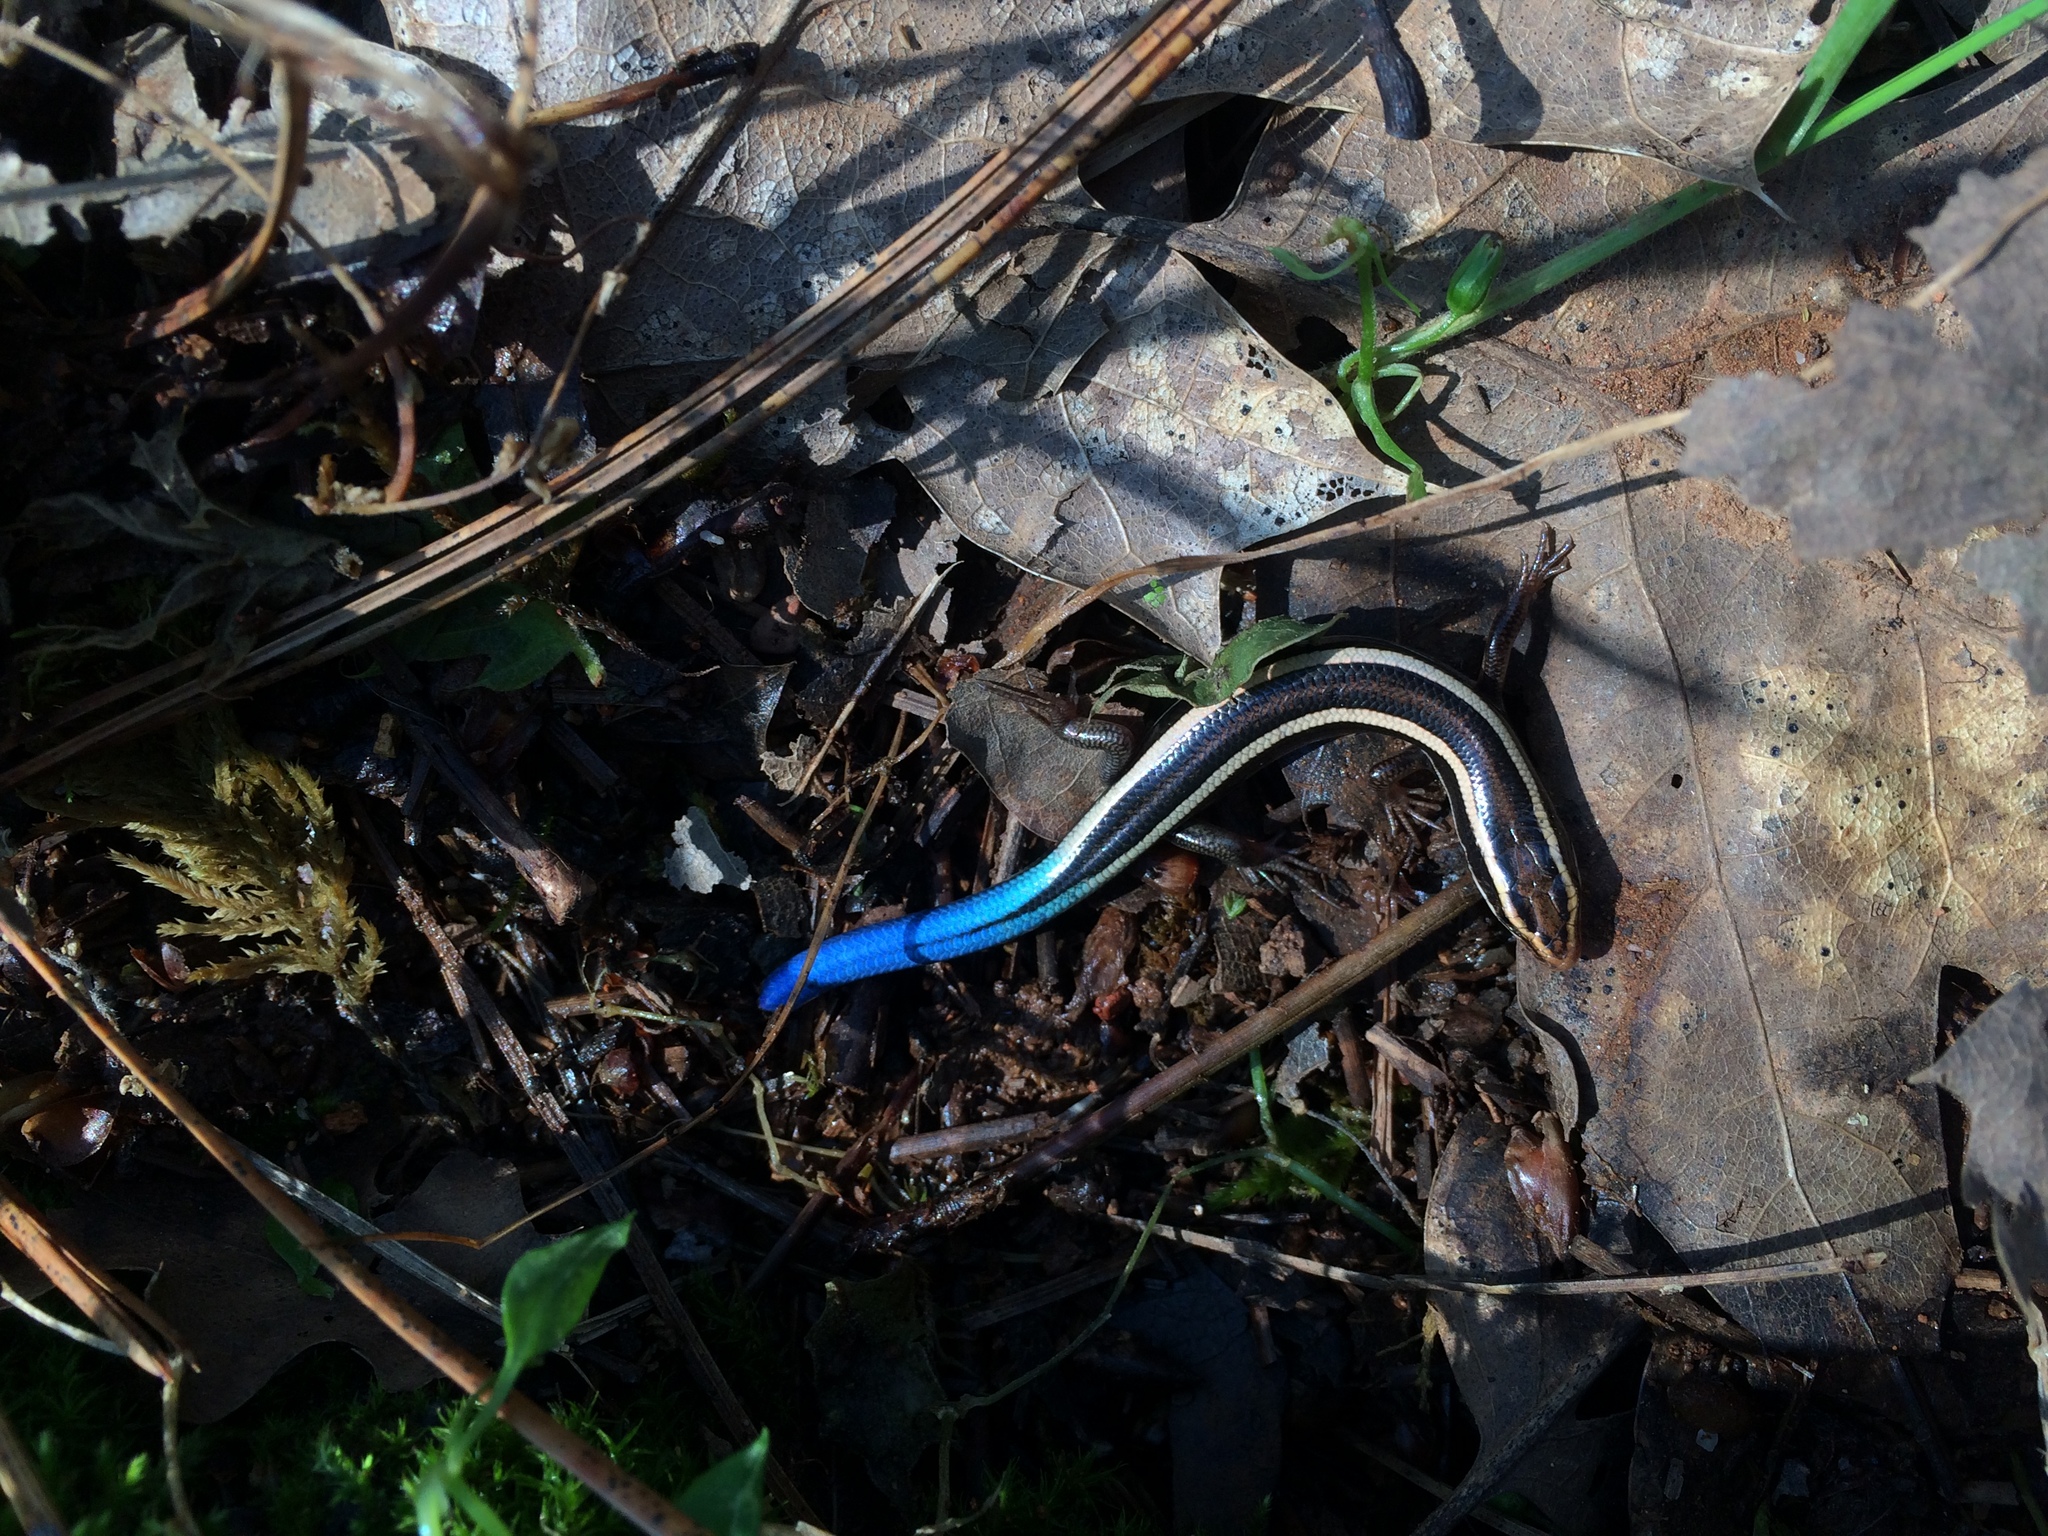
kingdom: Animalia
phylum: Chordata
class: Squamata
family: Scincidae
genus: Plestiodon
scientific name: Plestiodon skiltonianus
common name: Coronado island skink [interparietalis]
